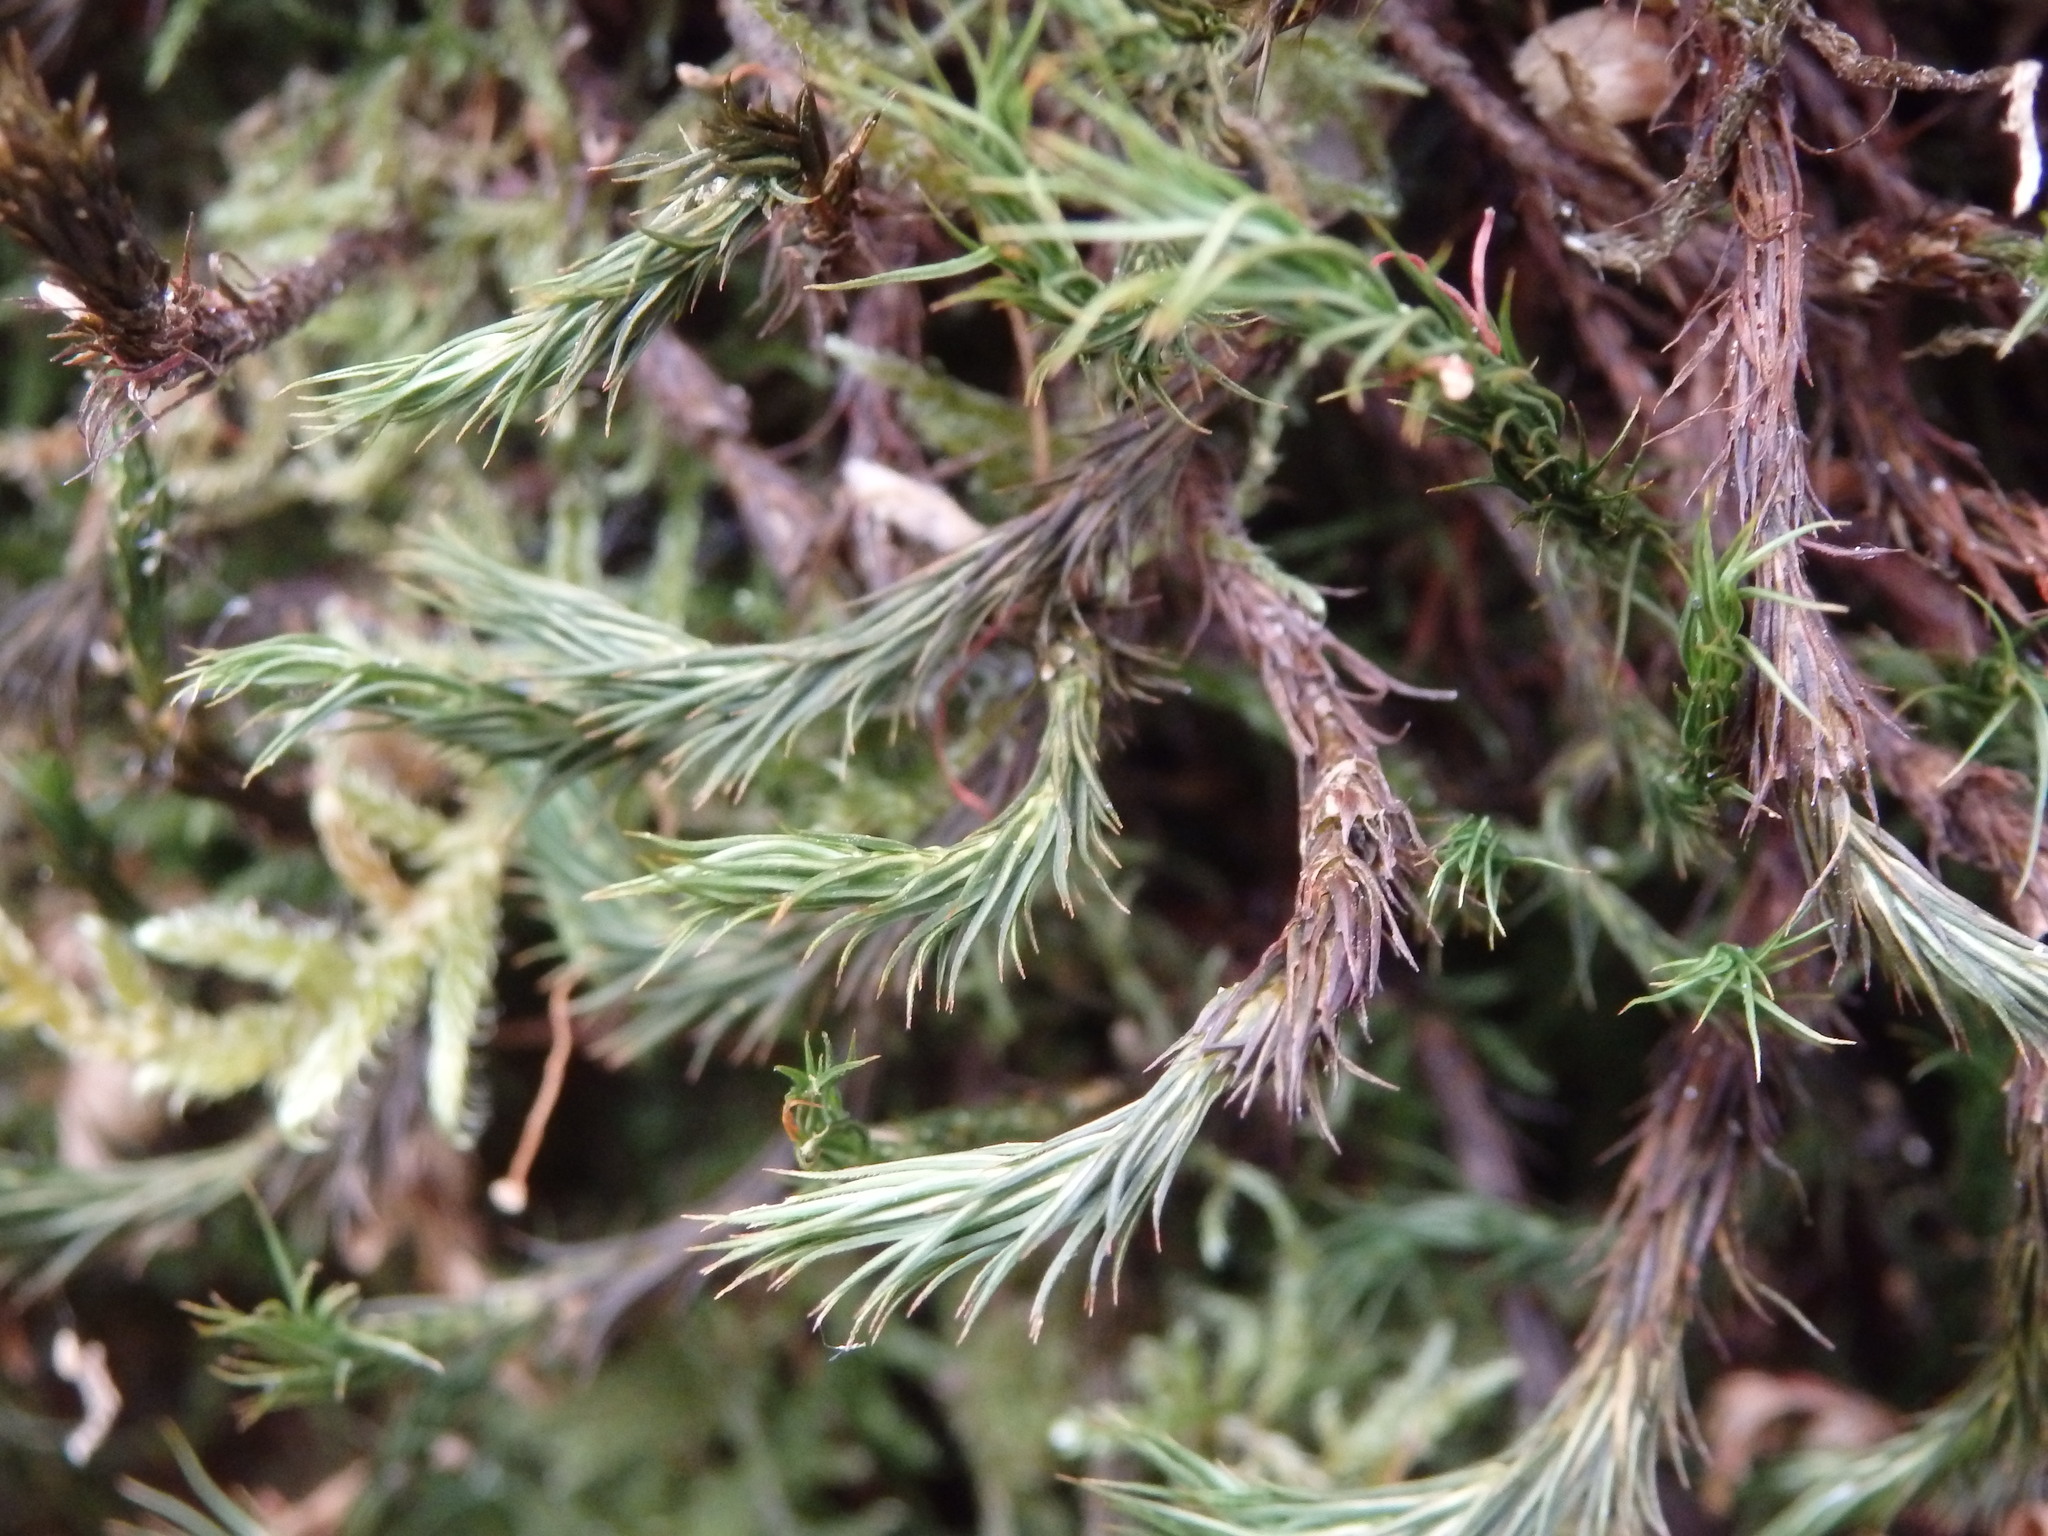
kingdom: Plantae
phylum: Bryophyta
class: Polytrichopsida
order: Polytrichales
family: Polytrichaceae
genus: Polytrichum
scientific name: Polytrichum commune
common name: Common haircap
